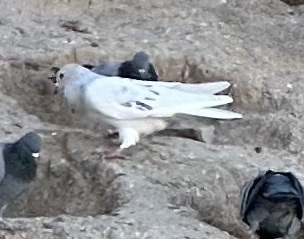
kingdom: Animalia
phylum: Chordata
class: Aves
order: Columbiformes
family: Columbidae
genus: Columba
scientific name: Columba livia
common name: Rock pigeon
